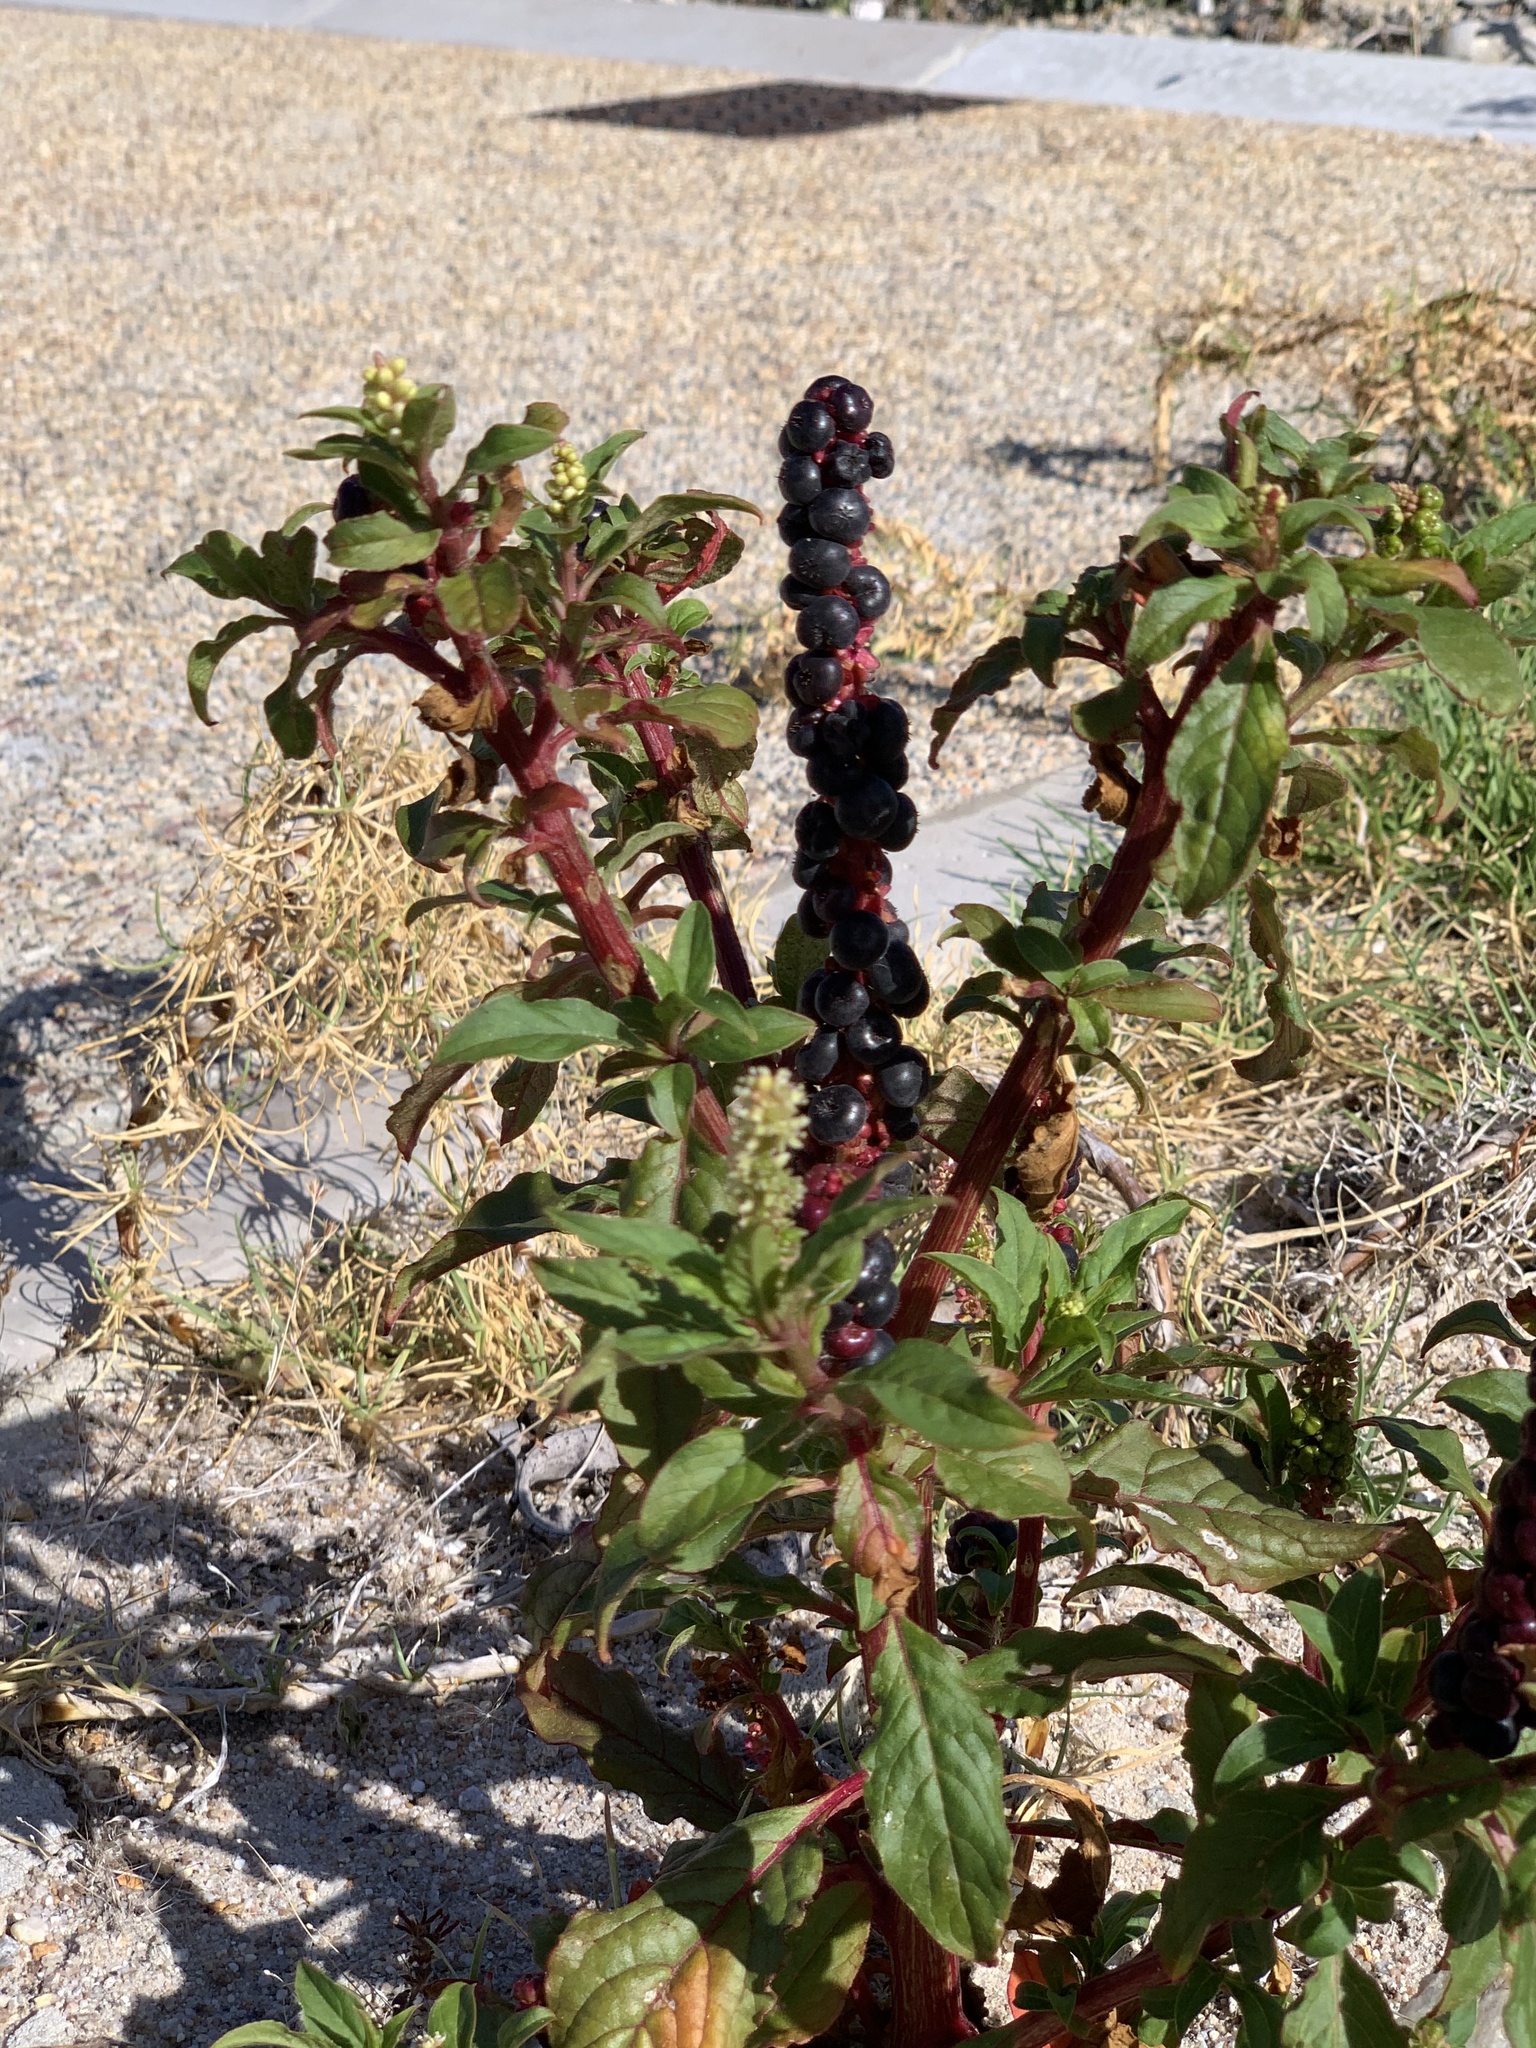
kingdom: Plantae
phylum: Tracheophyta
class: Magnoliopsida
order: Caryophyllales
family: Phytolaccaceae
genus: Phytolacca
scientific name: Phytolacca icosandra
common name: Button pokeweed
